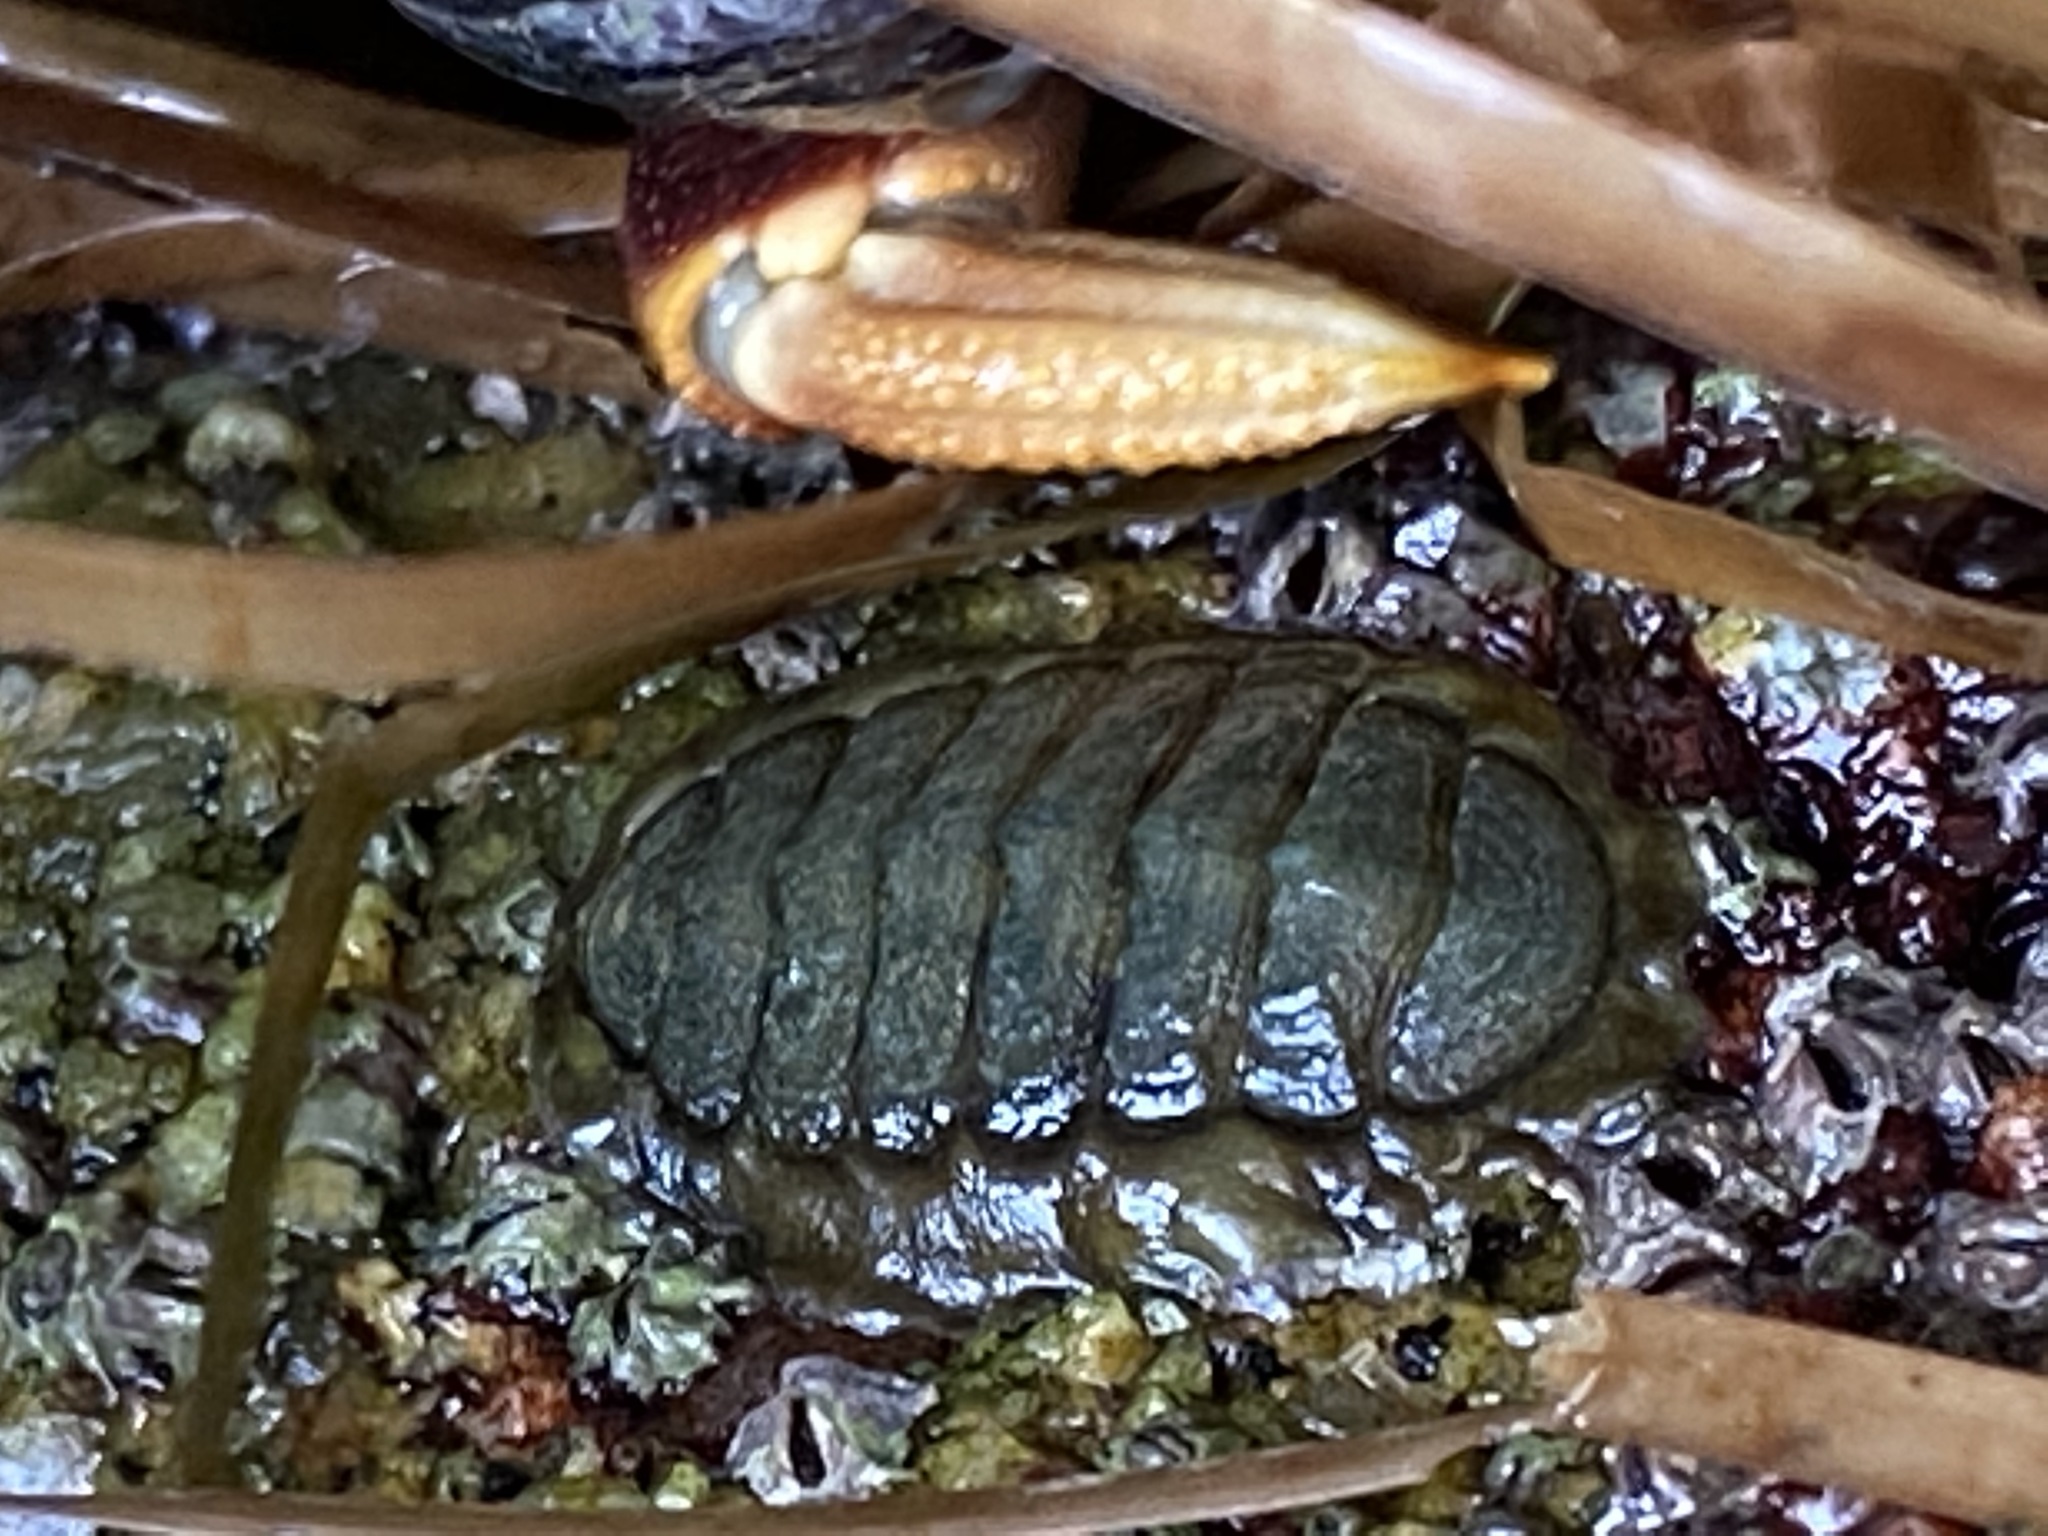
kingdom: Animalia
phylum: Mollusca
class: Polyplacophora
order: Chitonida
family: Tonicellidae
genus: Cyanoplax
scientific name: Cyanoplax hartwegii
